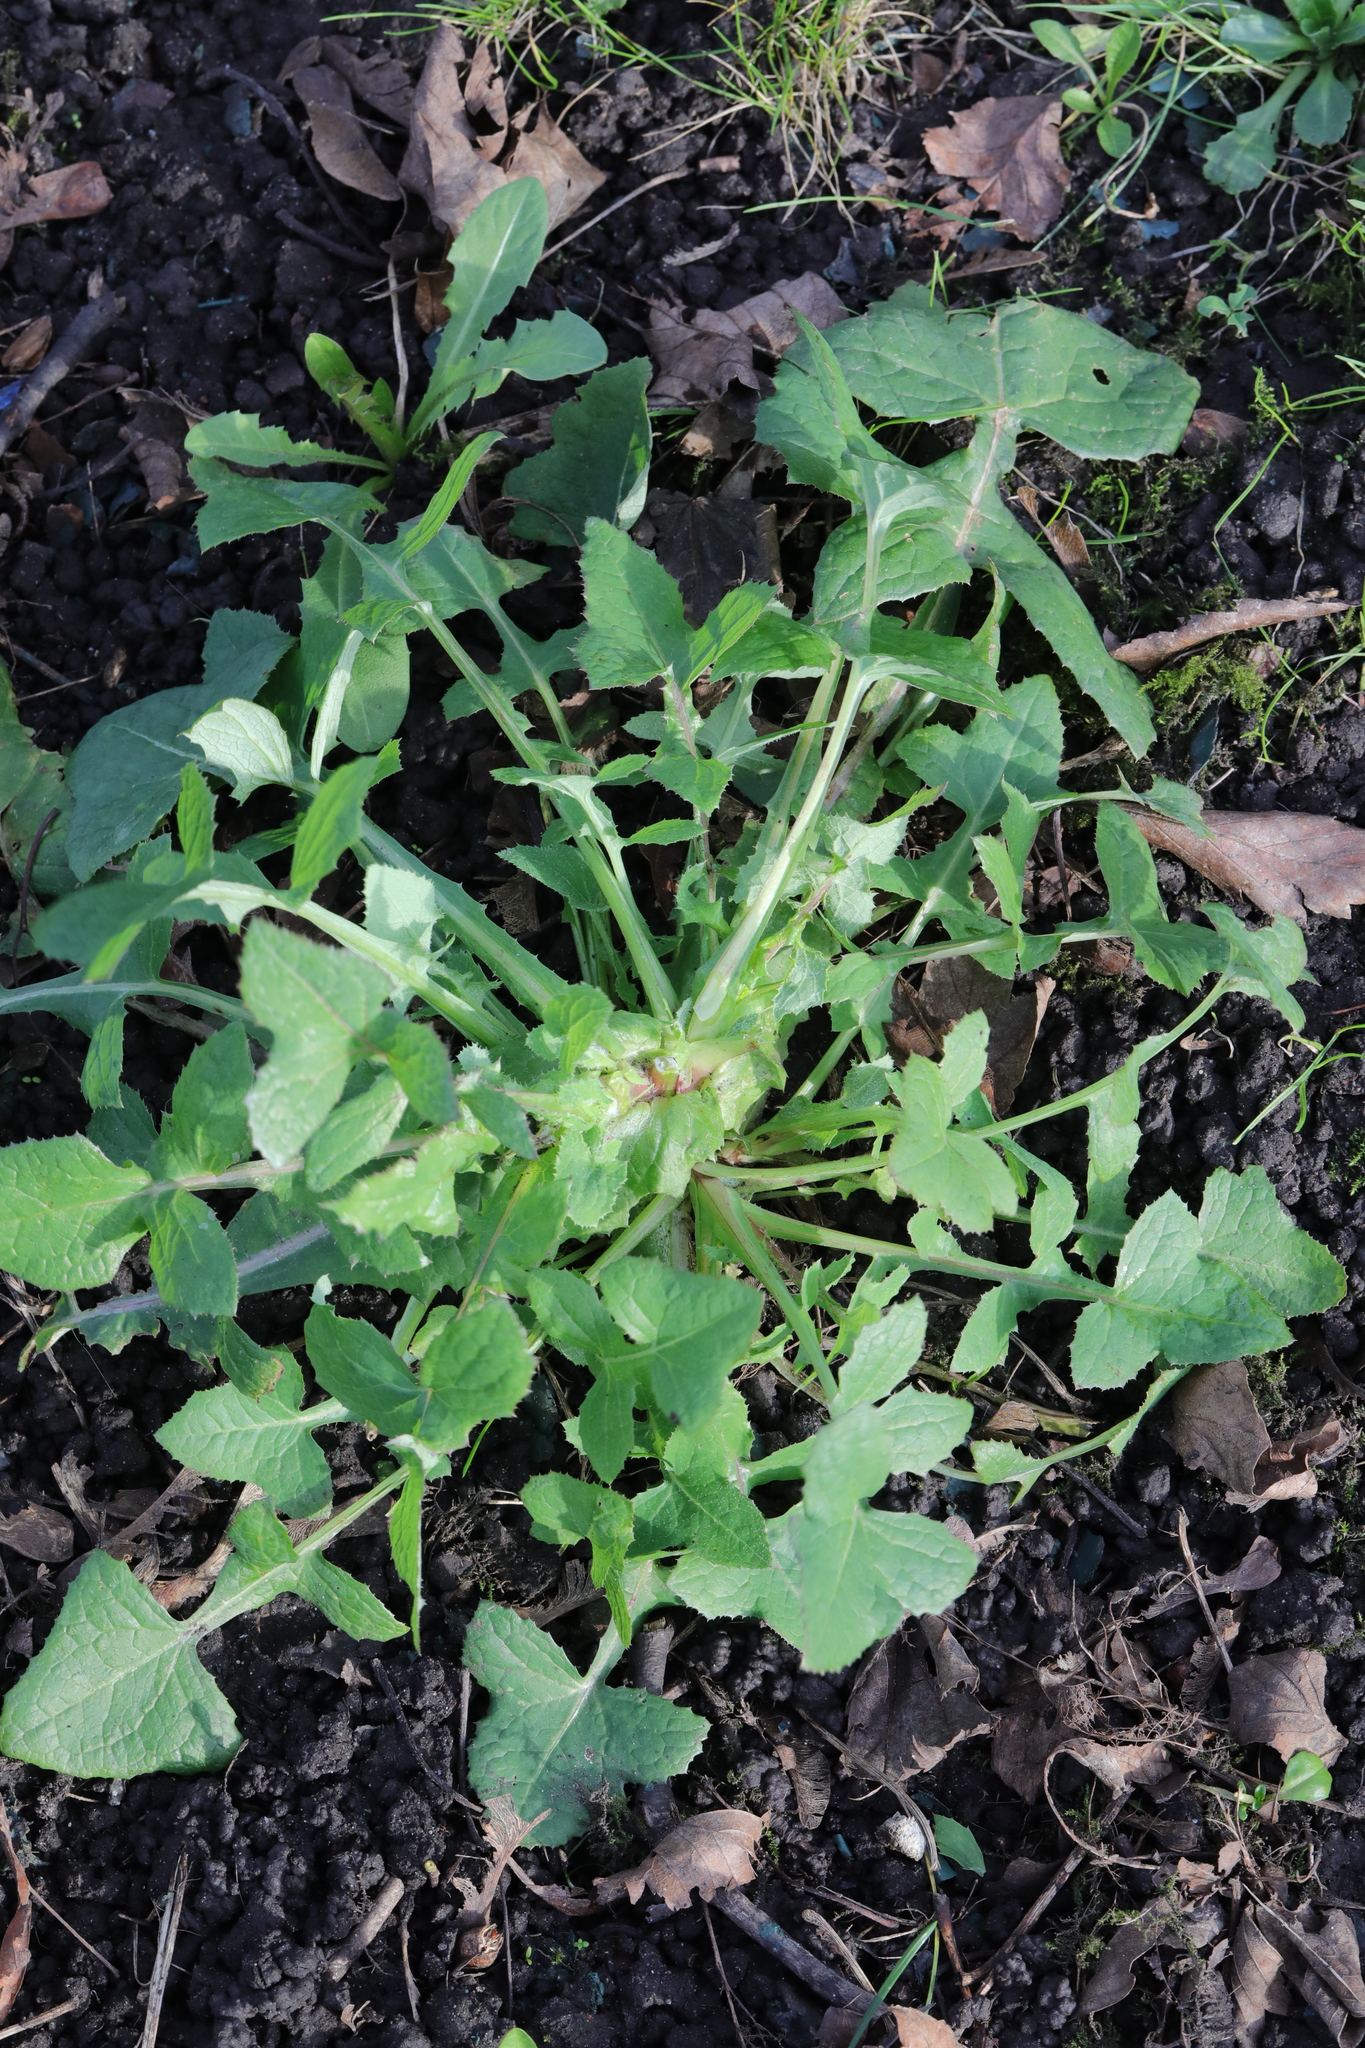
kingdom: Plantae
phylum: Tracheophyta
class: Magnoliopsida
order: Asterales
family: Asteraceae
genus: Sonchus
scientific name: Sonchus oleraceus
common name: Common sowthistle
